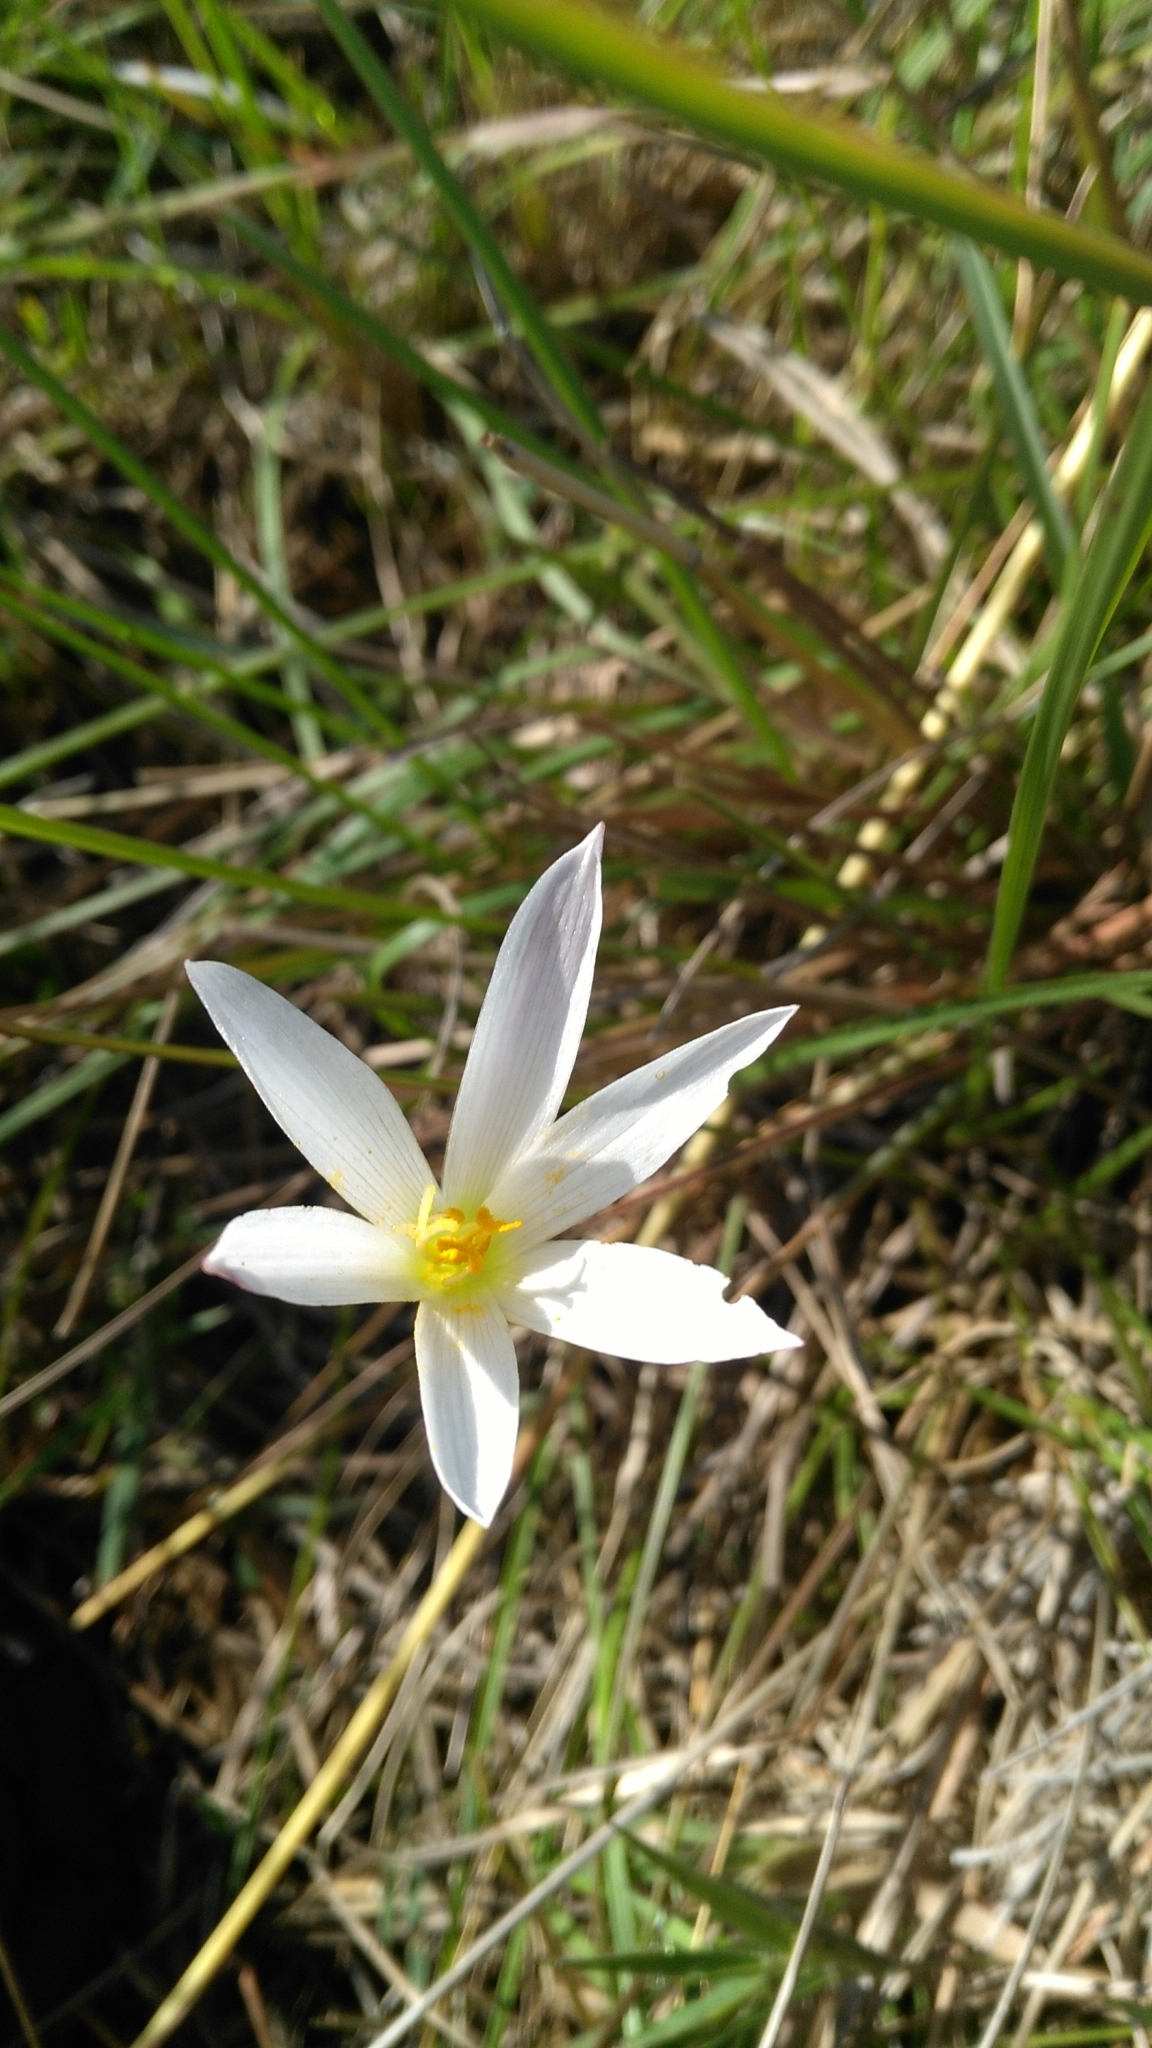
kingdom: Plantae
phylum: Tracheophyta
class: Liliopsida
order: Asparagales
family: Amaryllidaceae
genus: Zephyranthes
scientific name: Zephyranthes mesochloa
